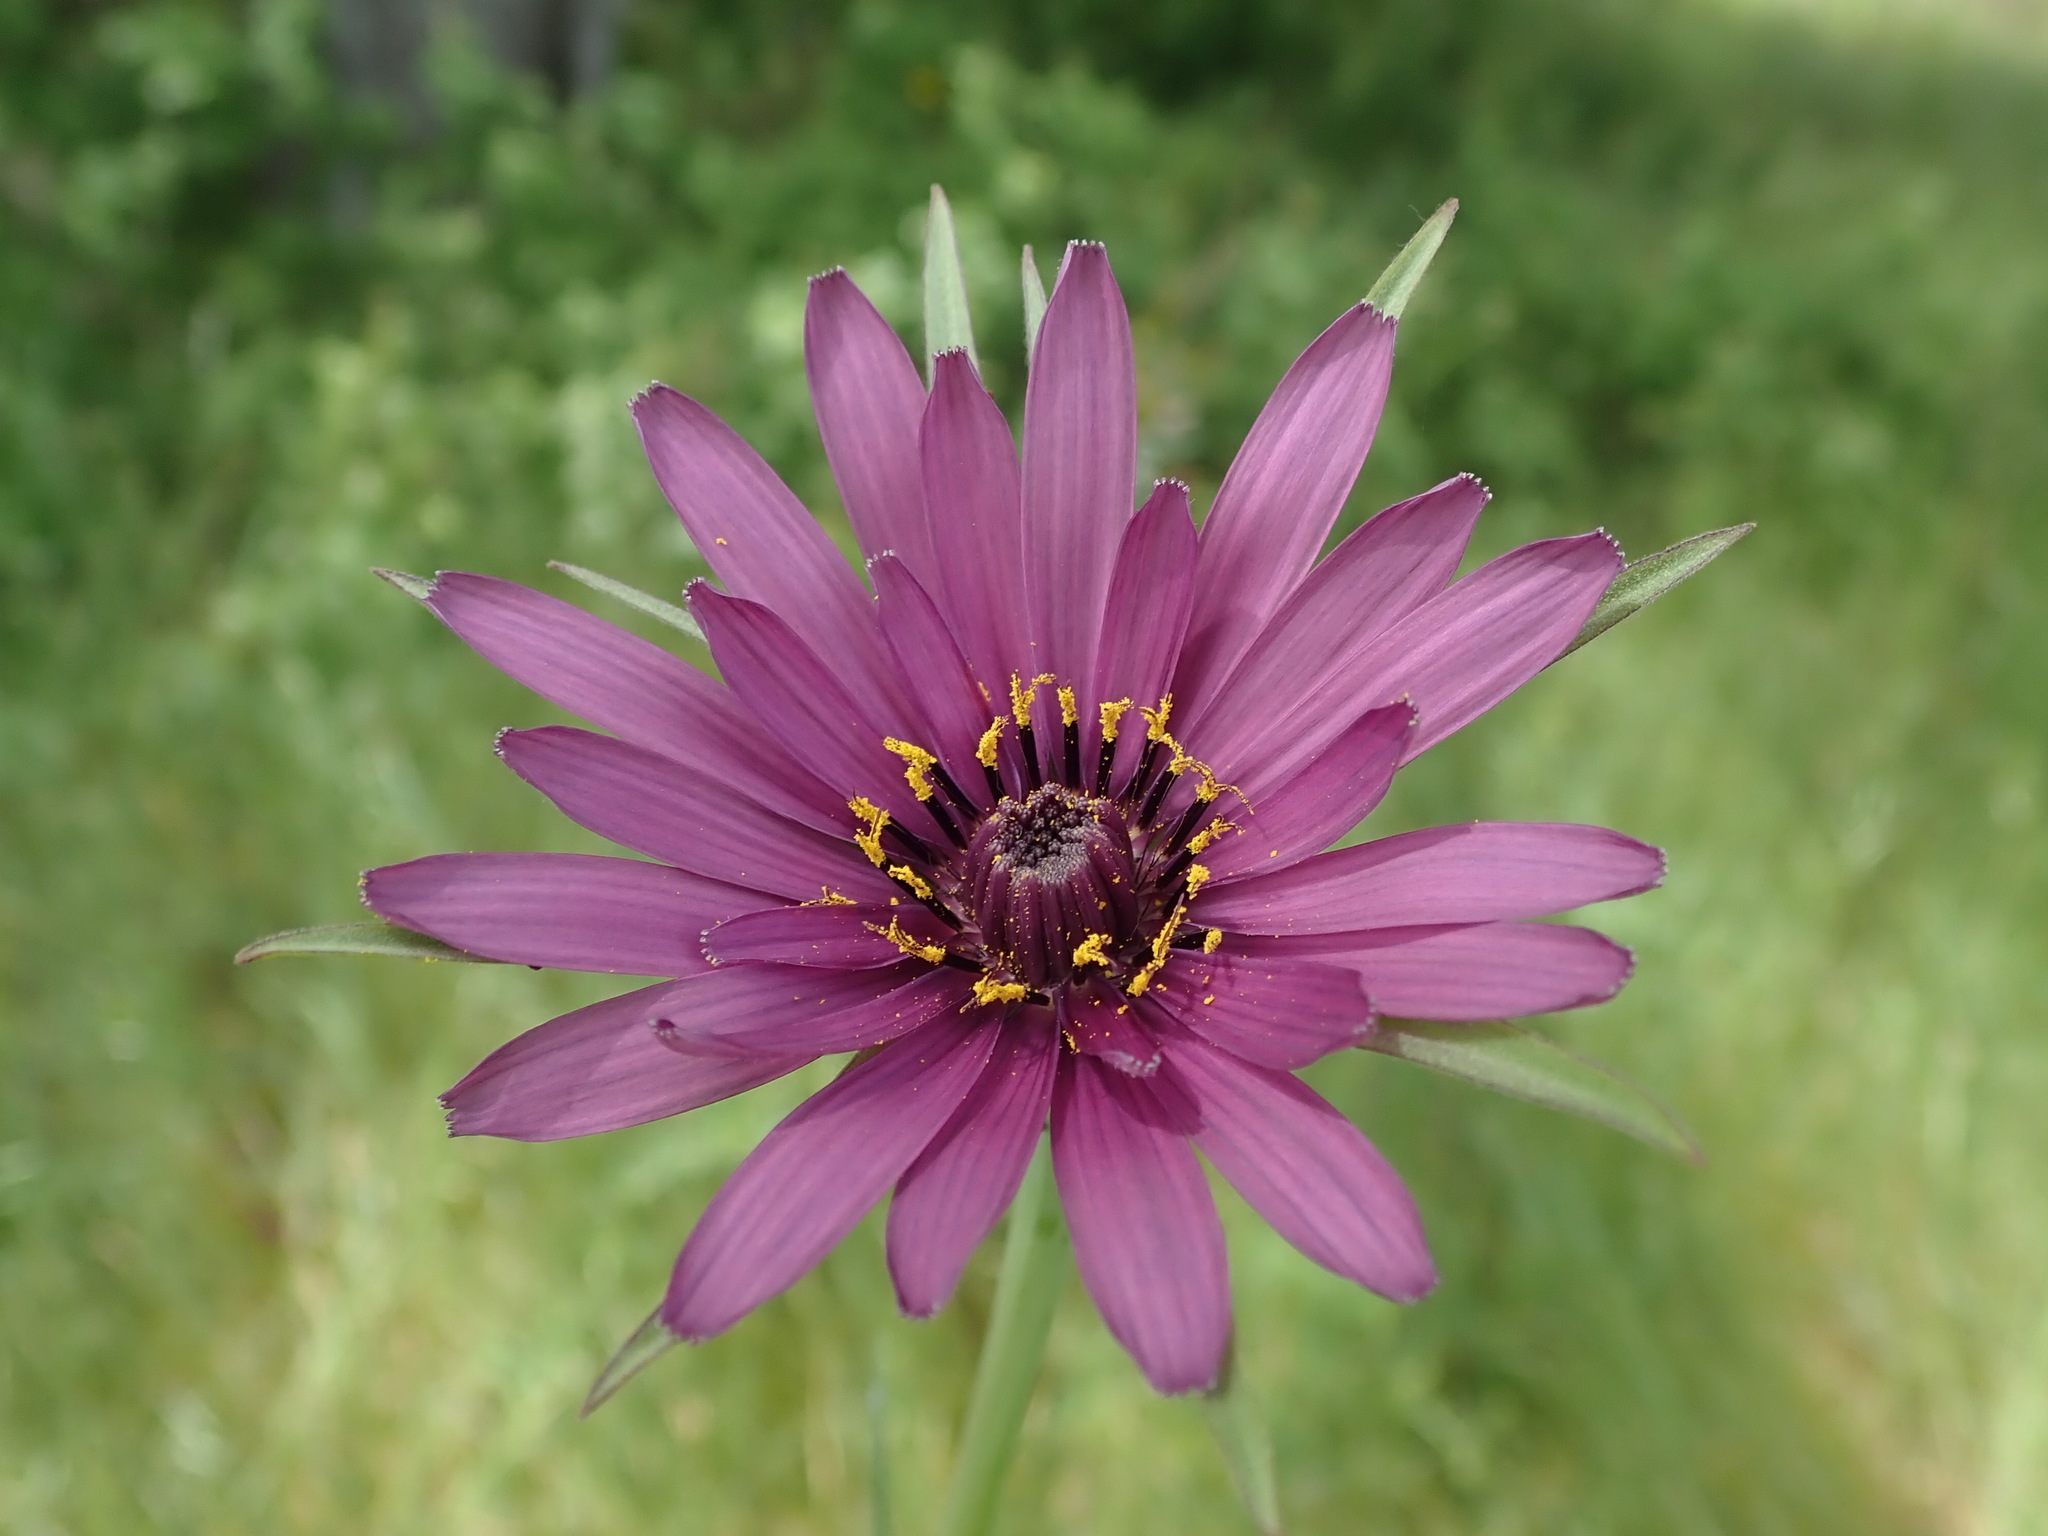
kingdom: Plantae
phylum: Tracheophyta
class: Magnoliopsida
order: Asterales
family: Asteraceae
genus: Tragopogon
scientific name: Tragopogon porrifolius
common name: Salsify
